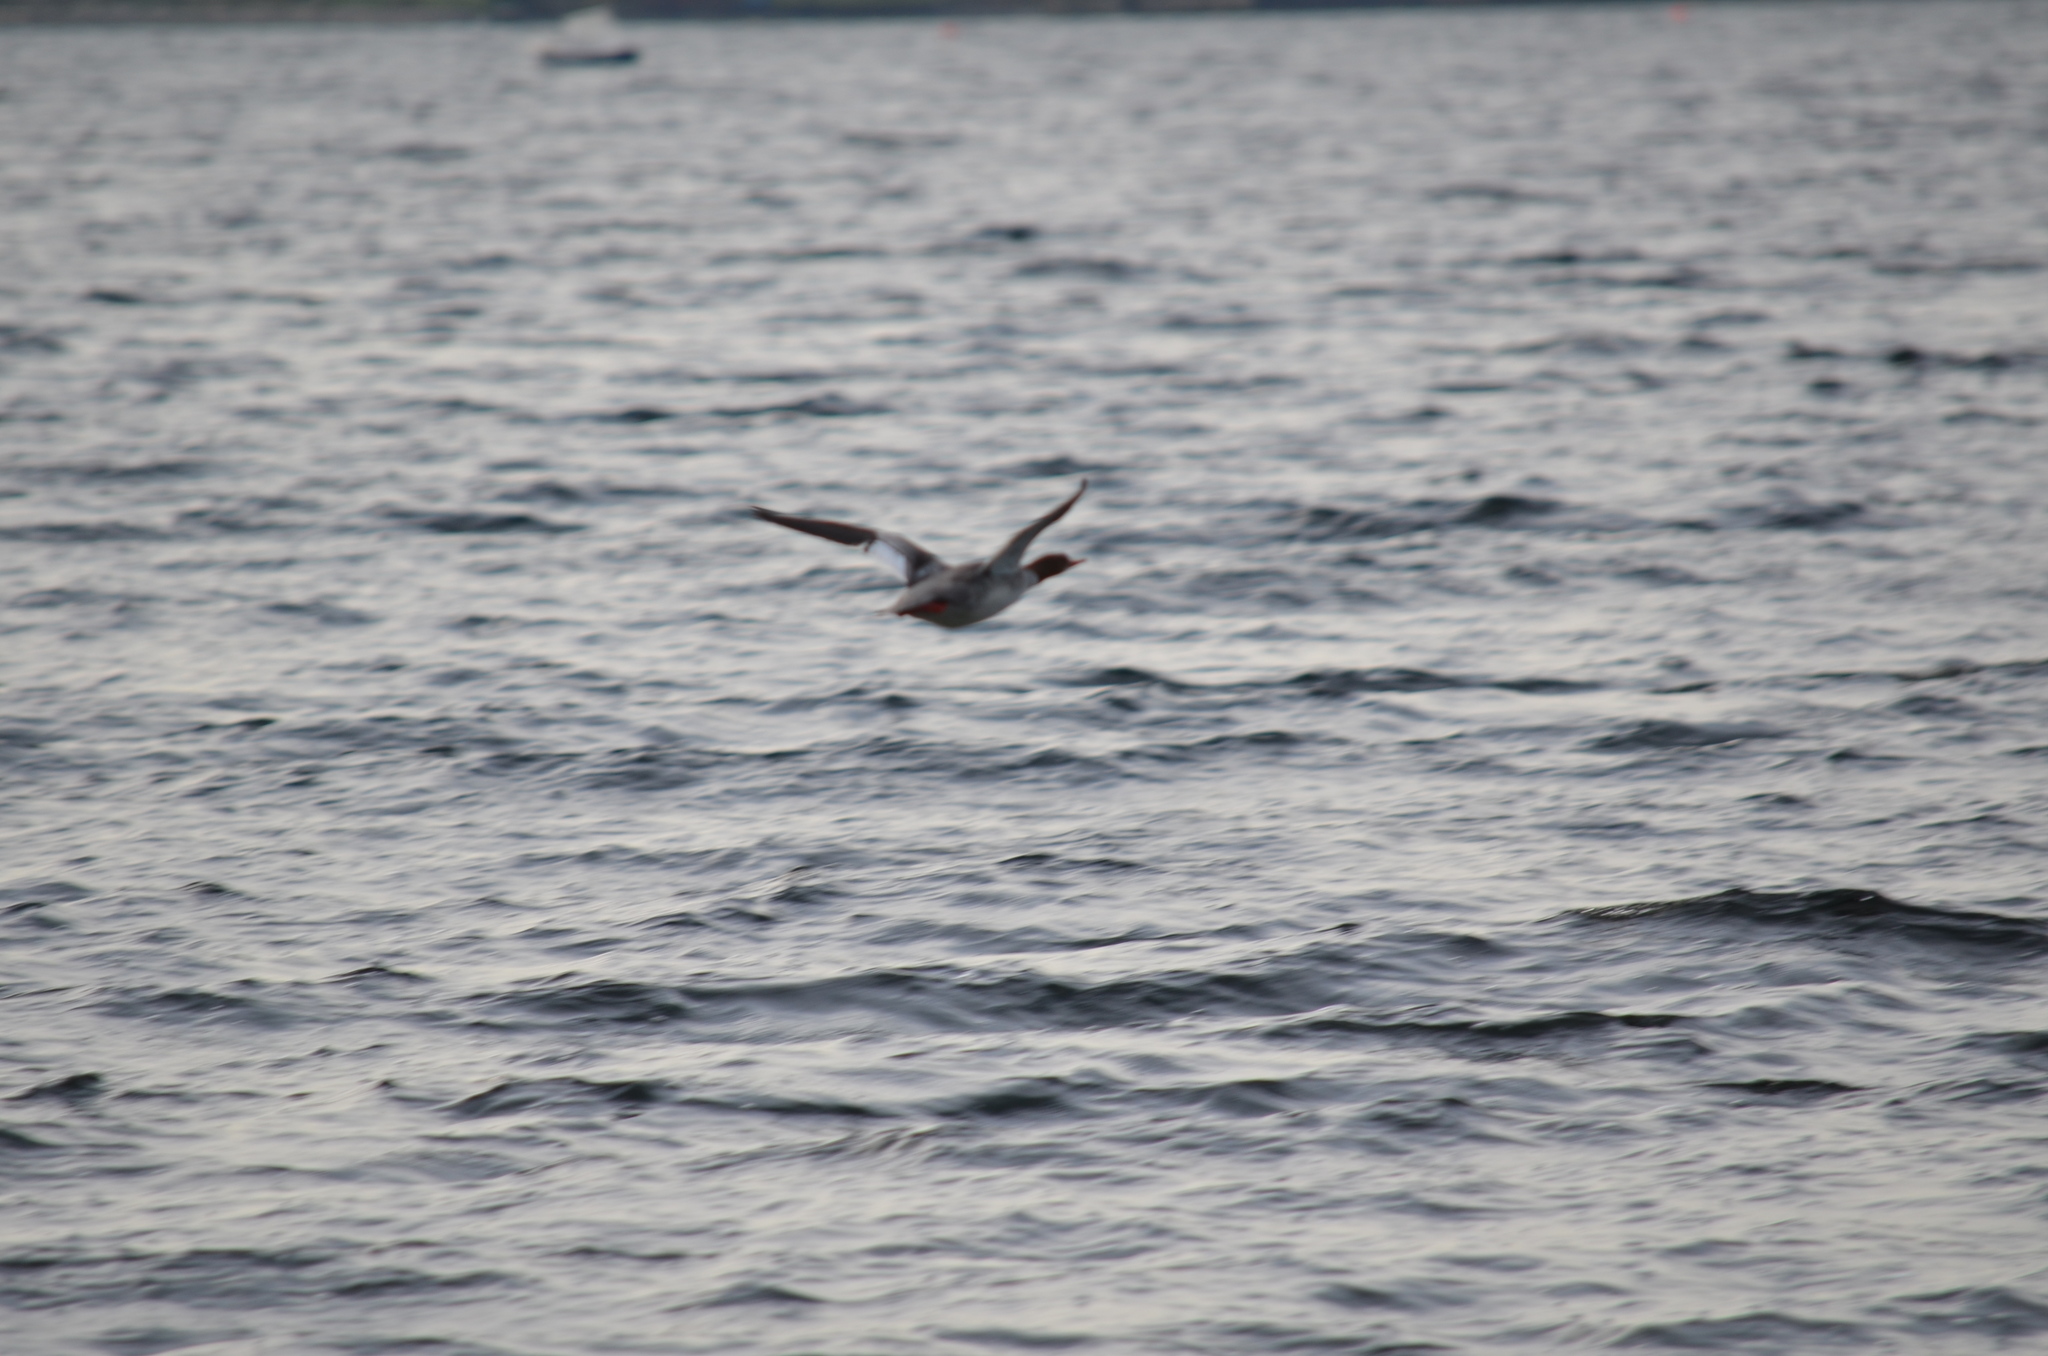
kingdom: Animalia
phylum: Chordata
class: Aves
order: Anseriformes
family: Anatidae
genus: Mergus
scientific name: Mergus merganser
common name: Common merganser
